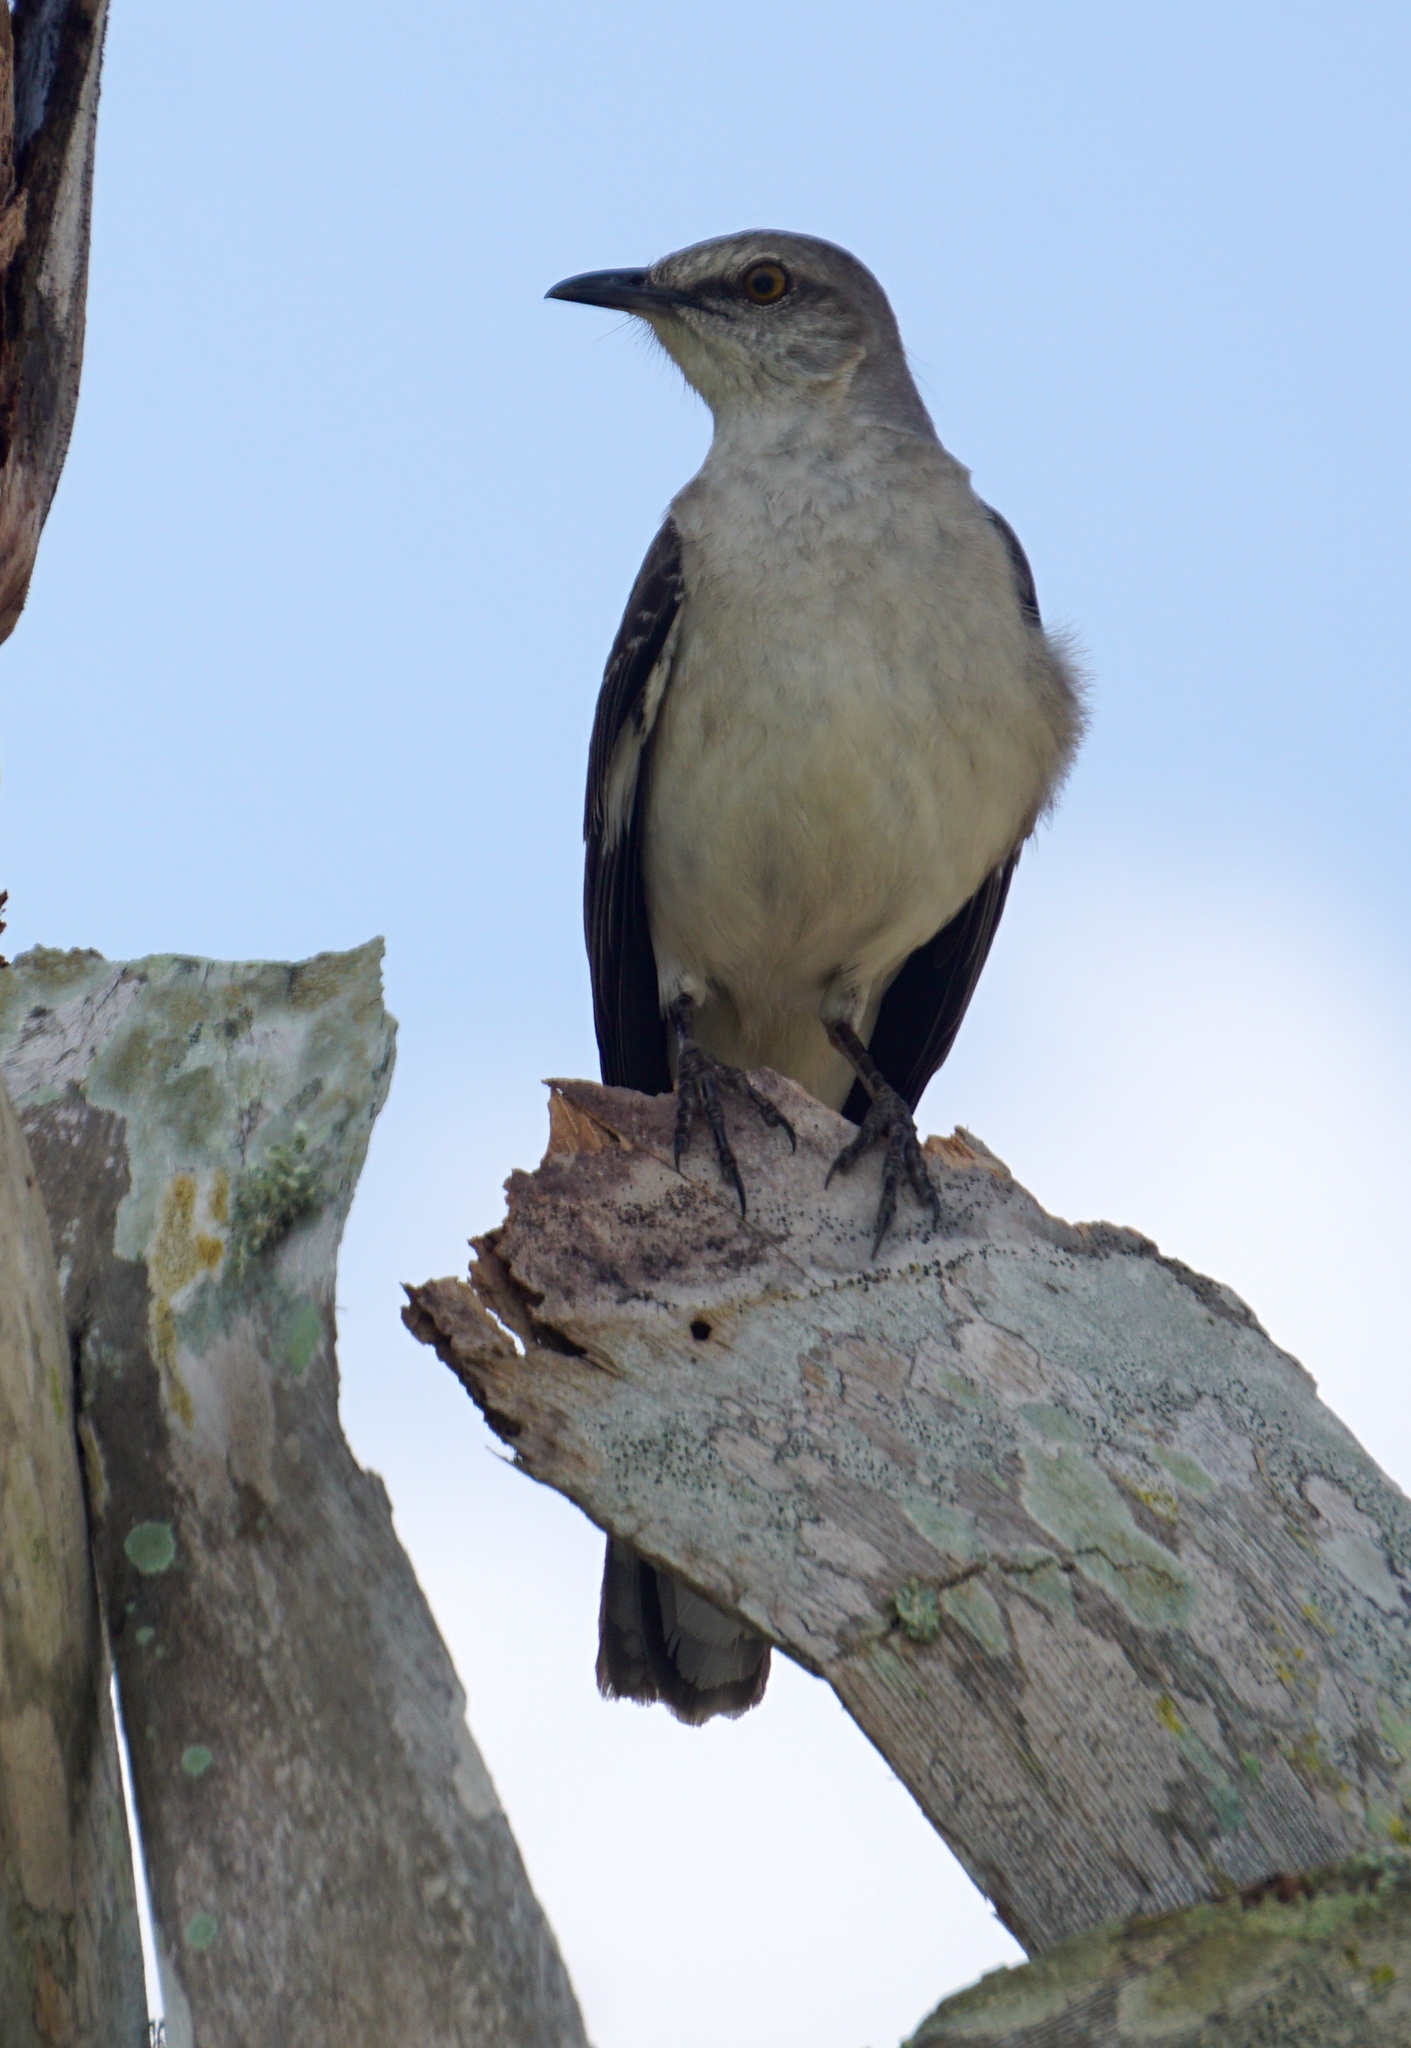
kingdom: Animalia
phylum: Chordata
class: Aves
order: Passeriformes
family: Mimidae
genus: Mimus
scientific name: Mimus polyglottos
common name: Northern mockingbird
